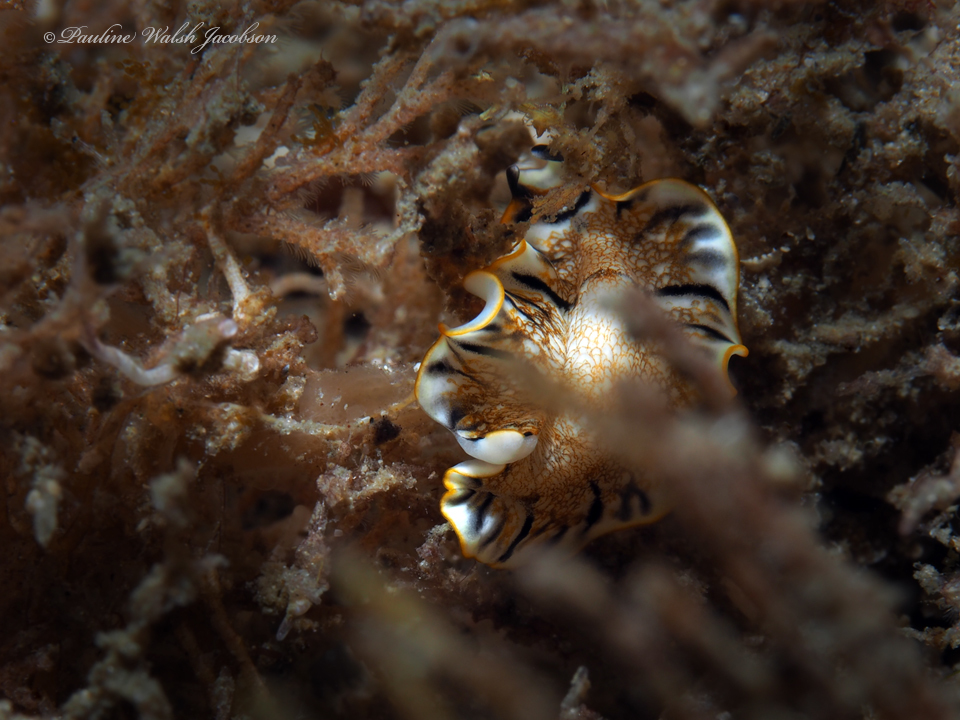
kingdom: Animalia
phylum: Platyhelminthes
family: Euryleptidae
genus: Prostheceraeus
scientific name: Prostheceraeus floridanus
